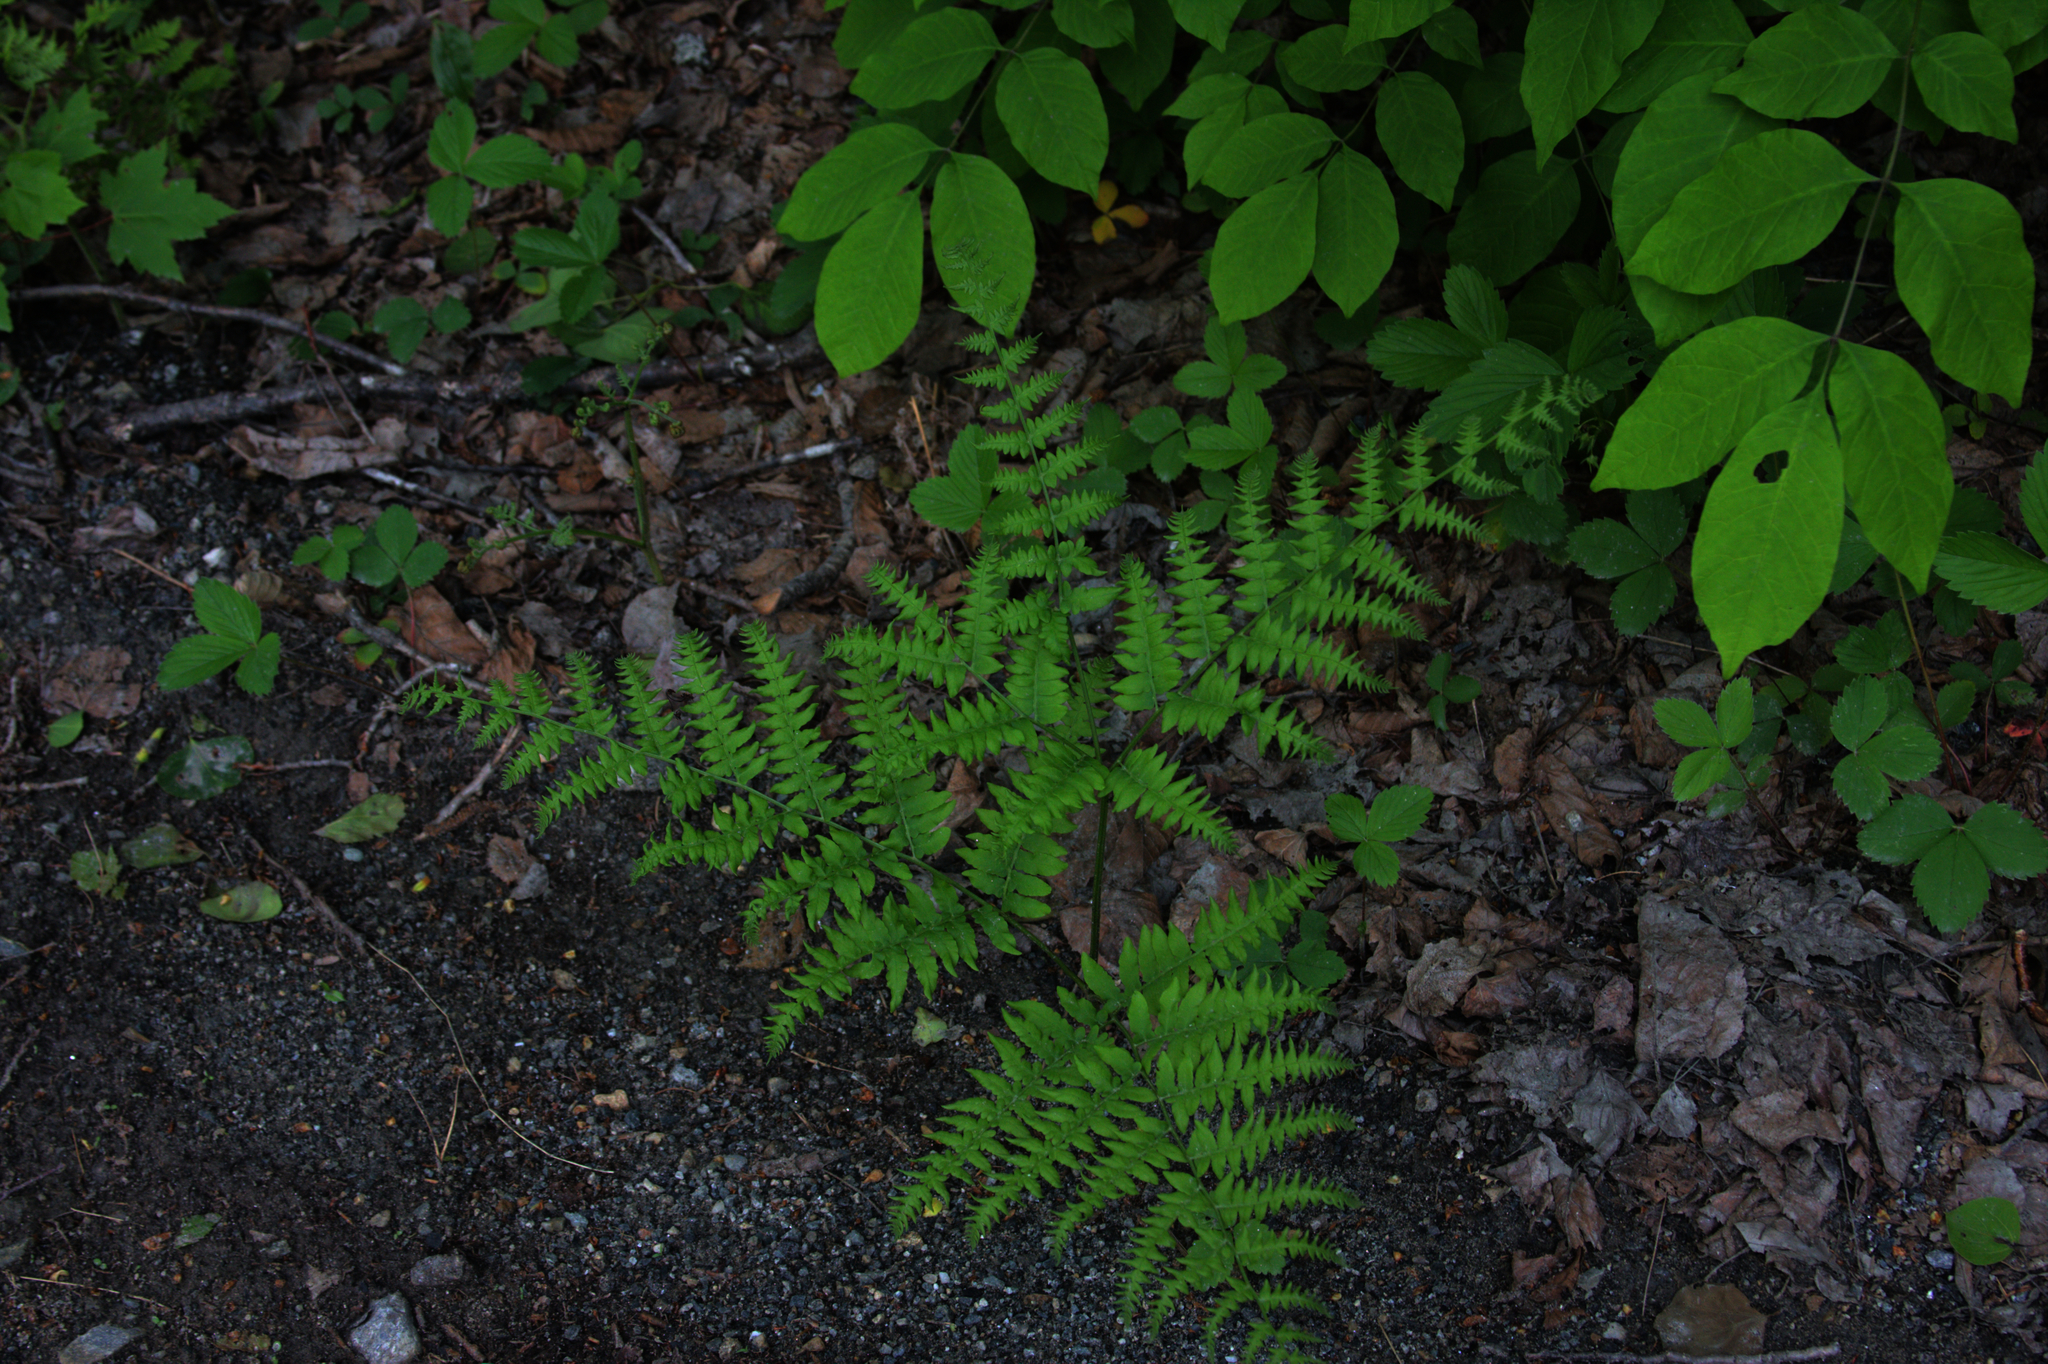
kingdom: Plantae
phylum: Tracheophyta
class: Polypodiopsida
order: Polypodiales
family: Dennstaedtiaceae
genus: Pteridium
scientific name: Pteridium aquilinum
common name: Bracken
